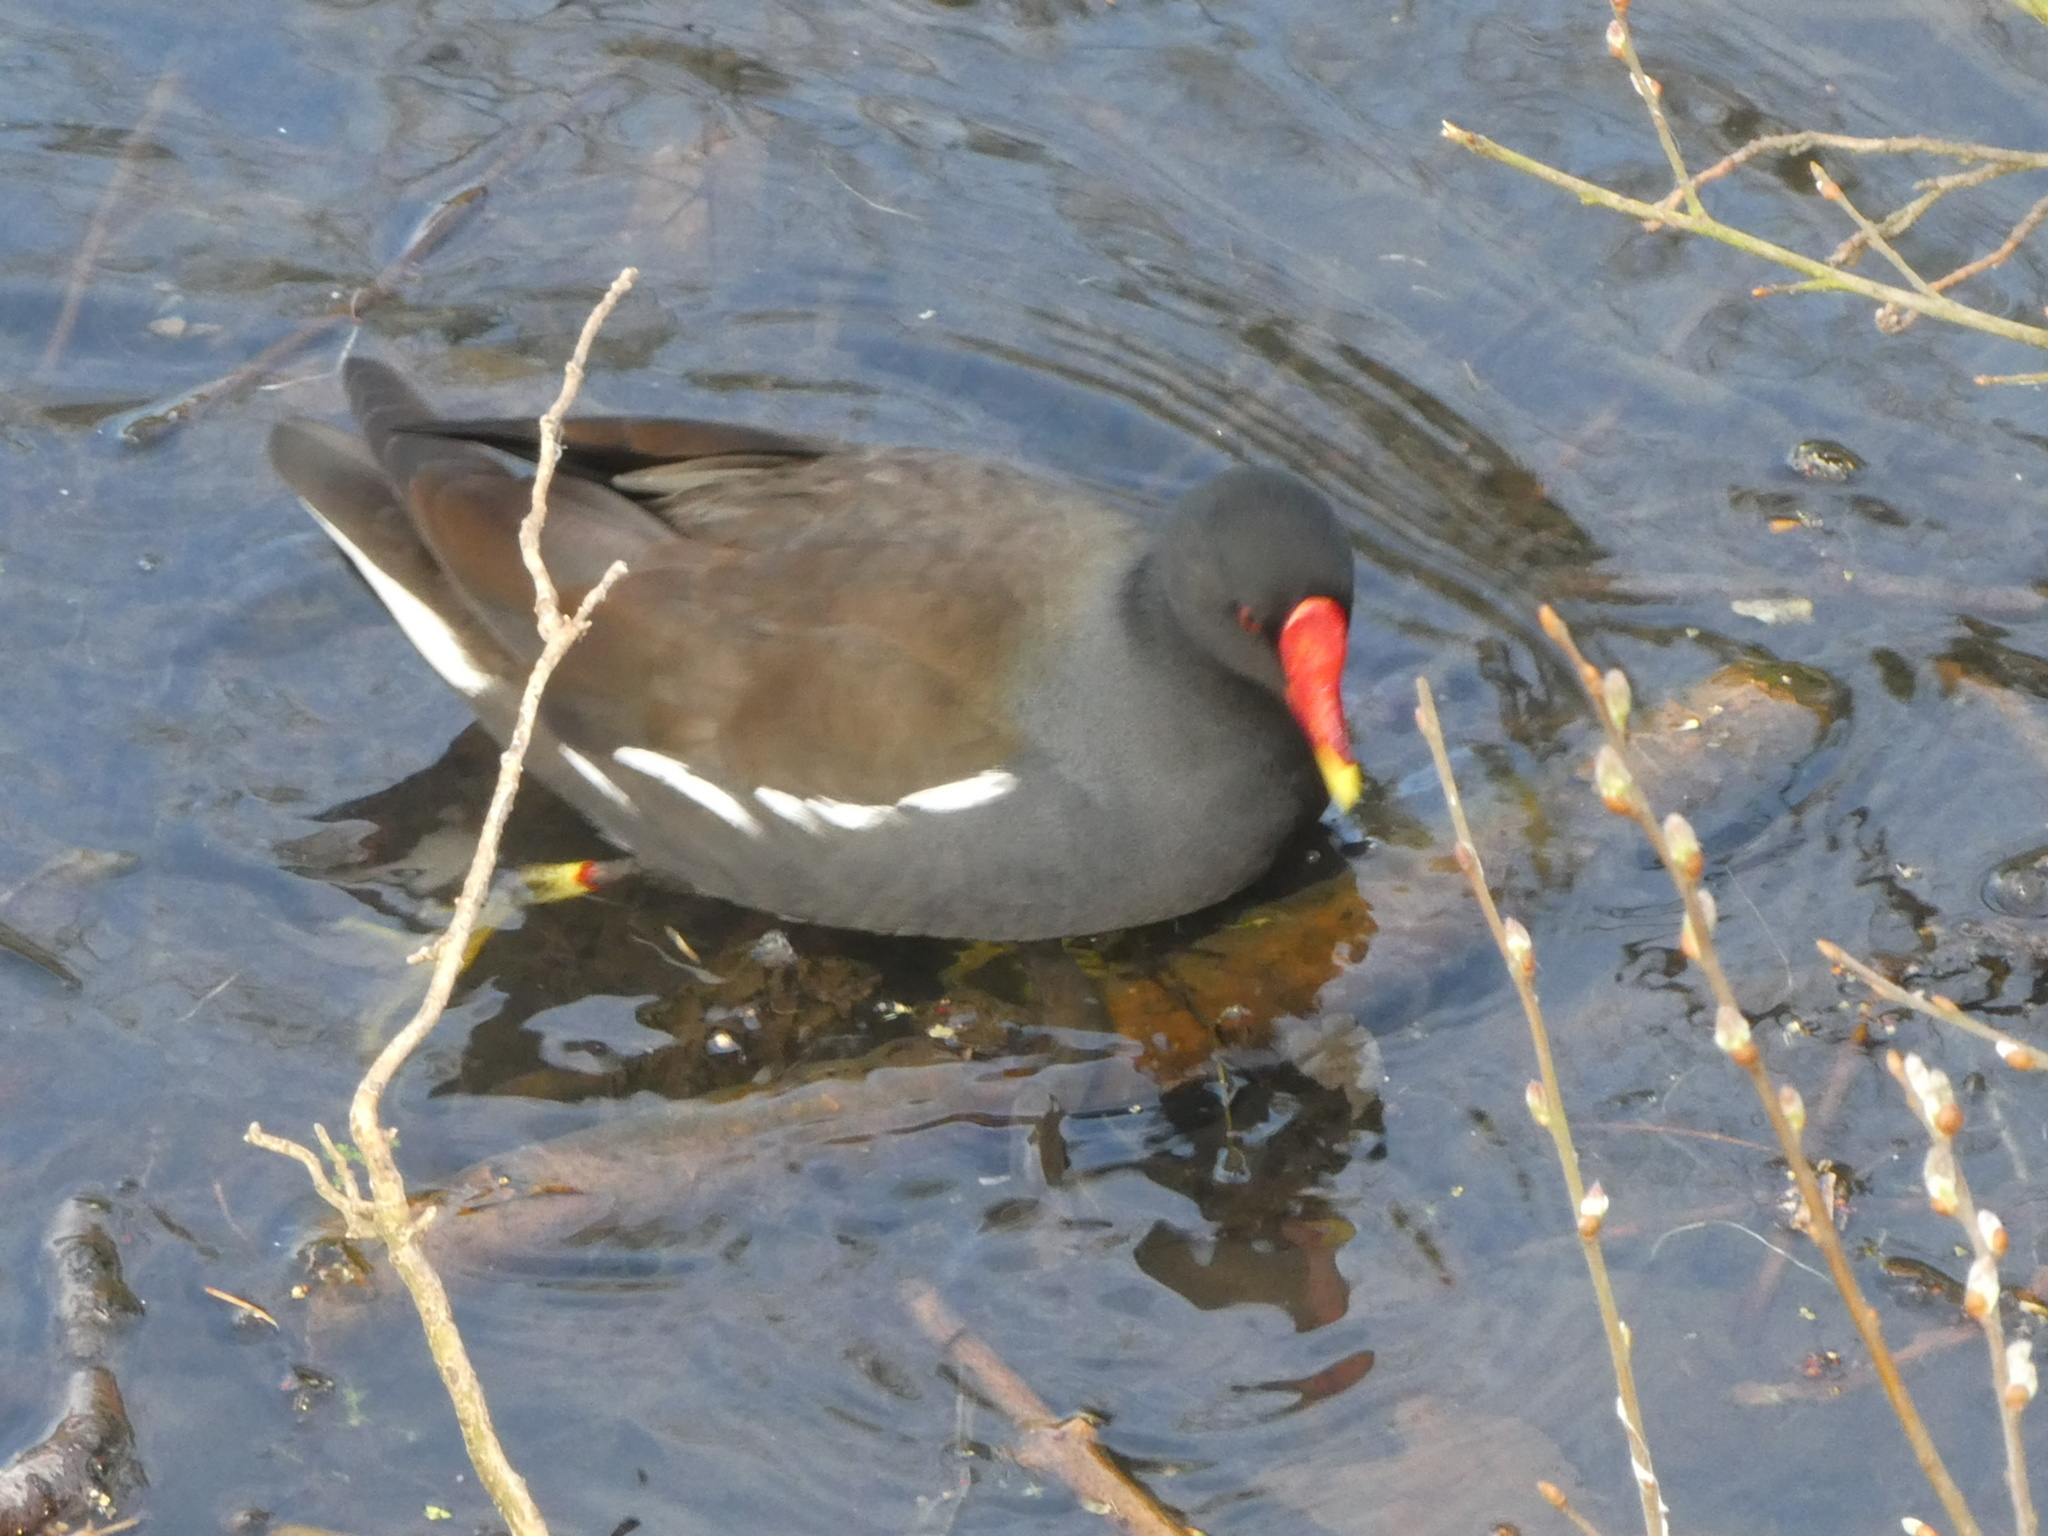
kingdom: Animalia
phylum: Chordata
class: Aves
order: Gruiformes
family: Rallidae
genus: Gallinula
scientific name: Gallinula chloropus
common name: Common moorhen
